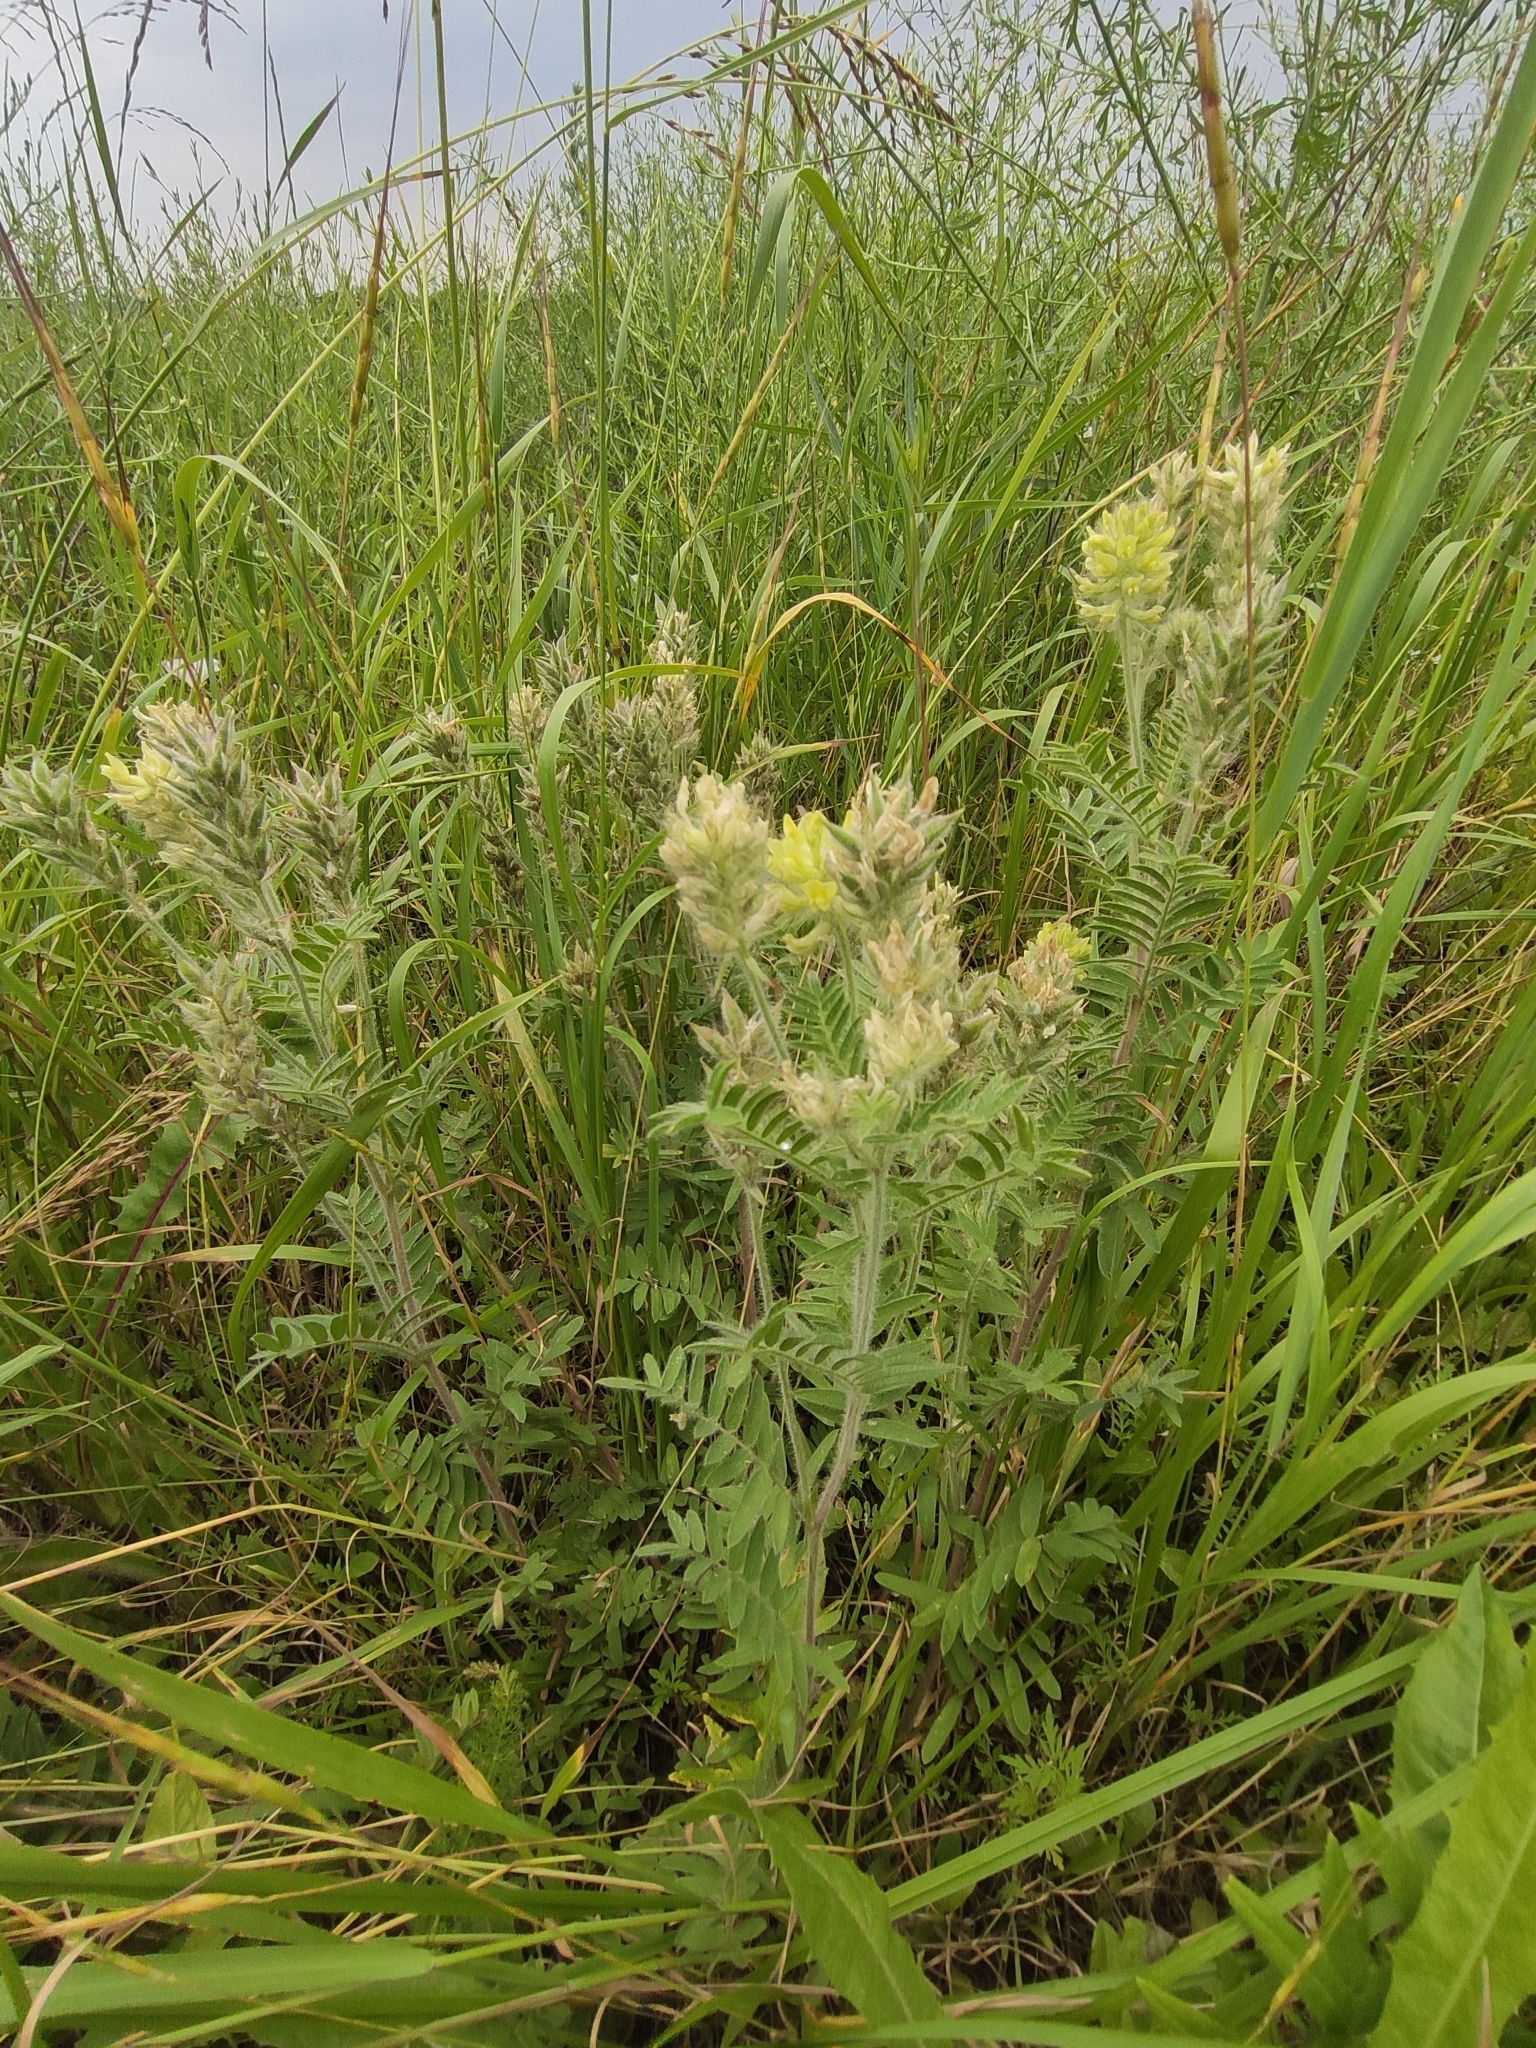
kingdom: Plantae
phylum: Tracheophyta
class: Magnoliopsida
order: Fabales
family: Fabaceae
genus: Oxytropis
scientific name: Oxytropis pilosa
